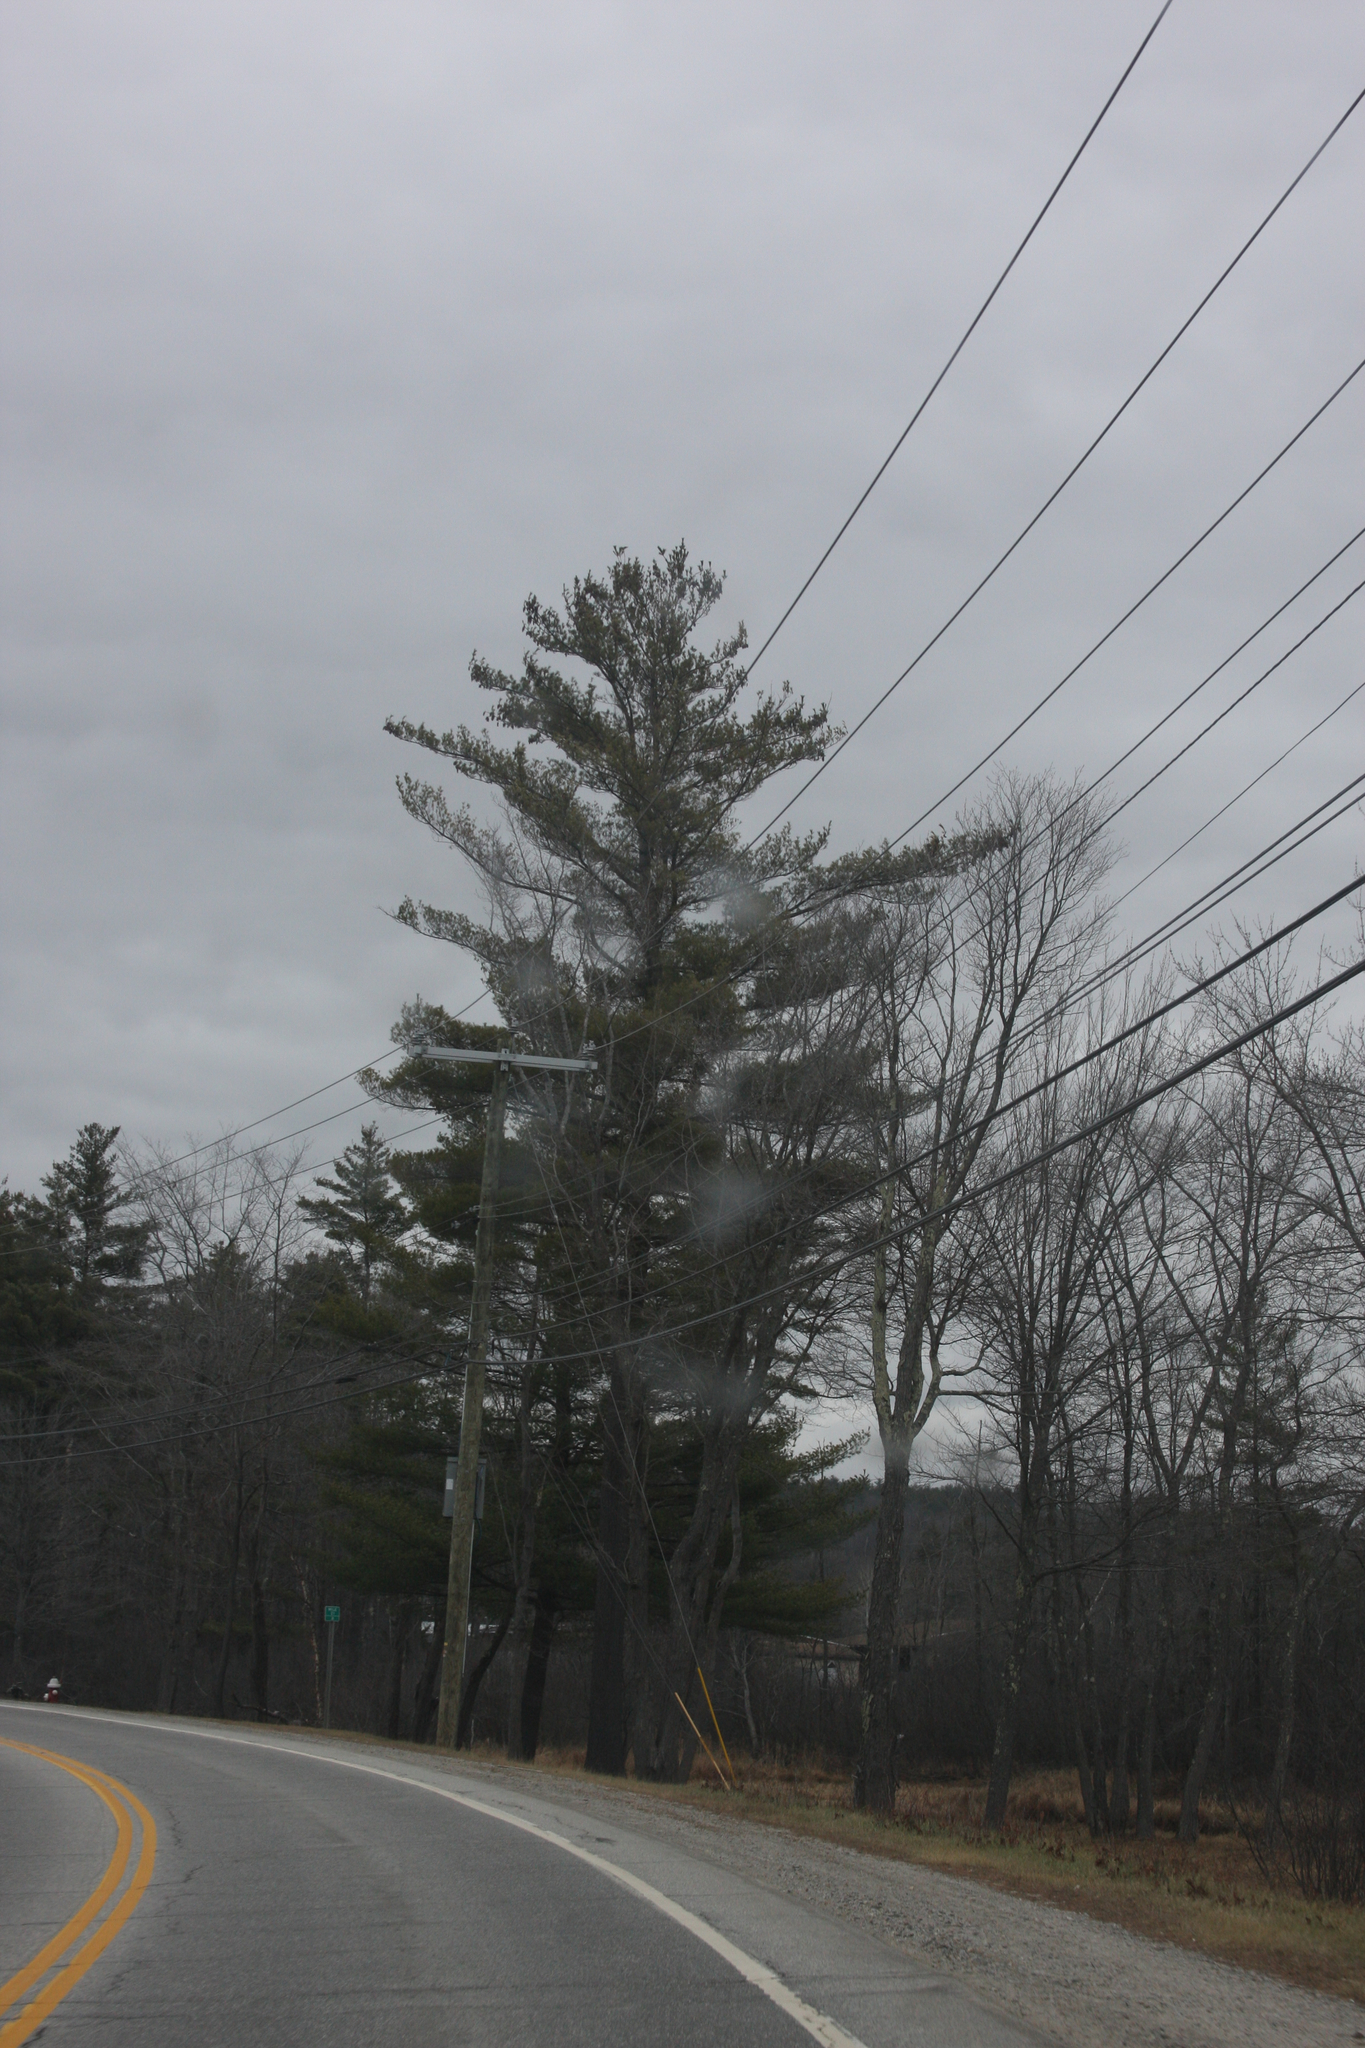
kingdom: Plantae
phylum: Tracheophyta
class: Pinopsida
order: Pinales
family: Pinaceae
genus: Pinus
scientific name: Pinus strobus
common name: Weymouth pine
